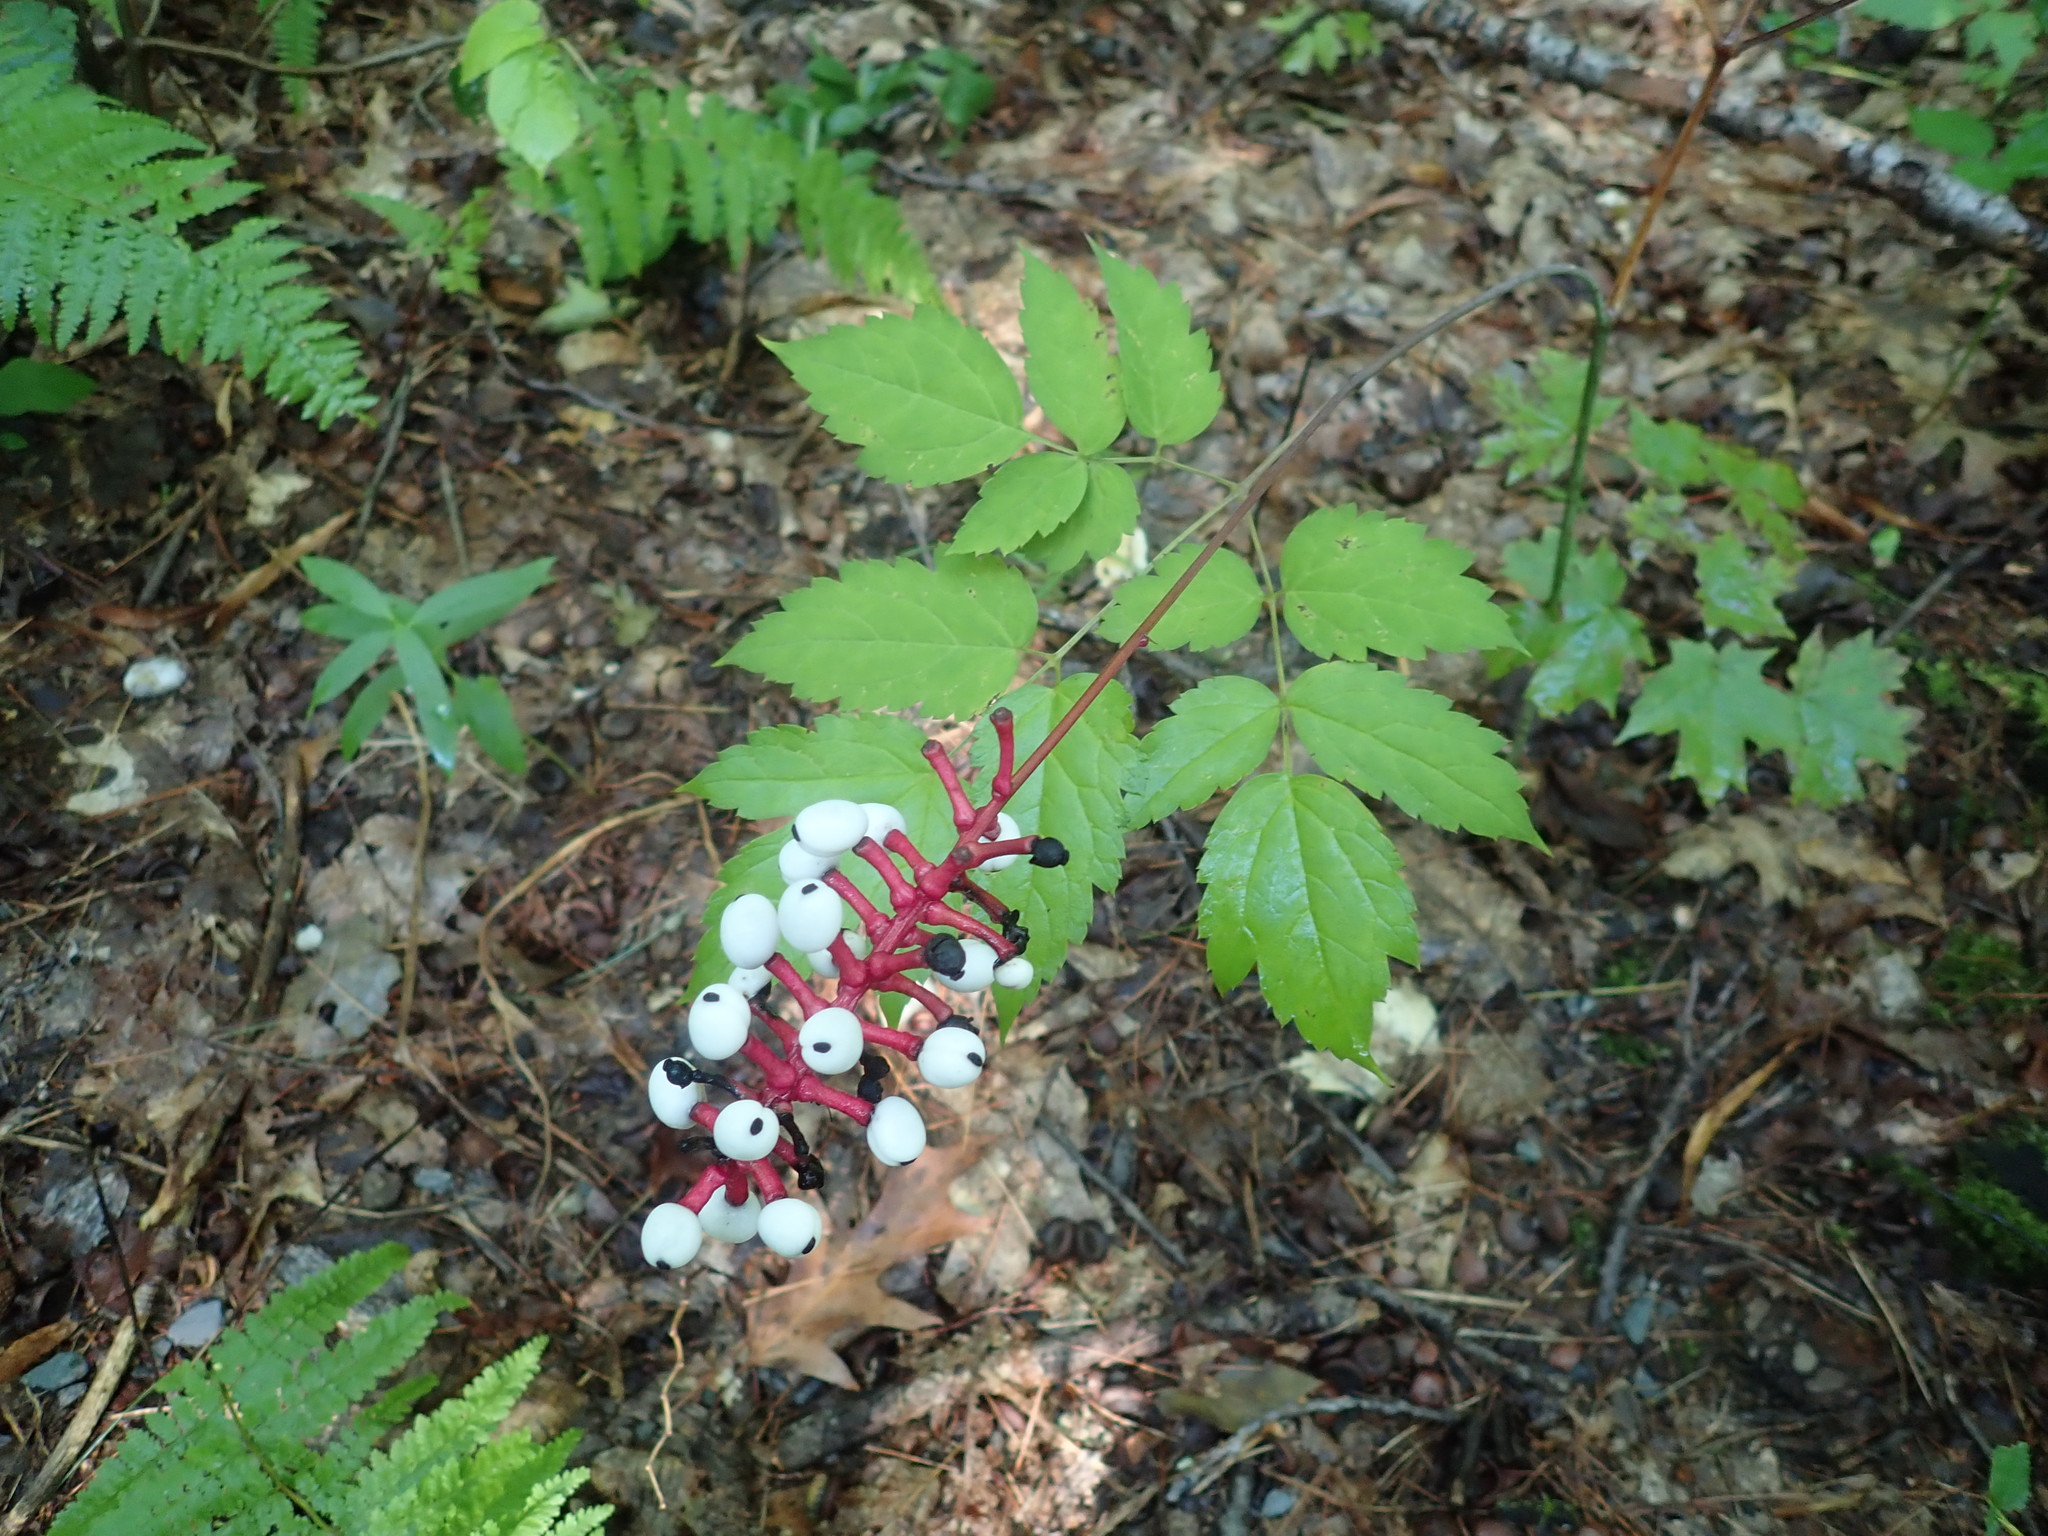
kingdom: Plantae
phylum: Tracheophyta
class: Magnoliopsida
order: Ranunculales
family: Ranunculaceae
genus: Actaea
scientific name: Actaea pachypoda
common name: Doll's-eyes
